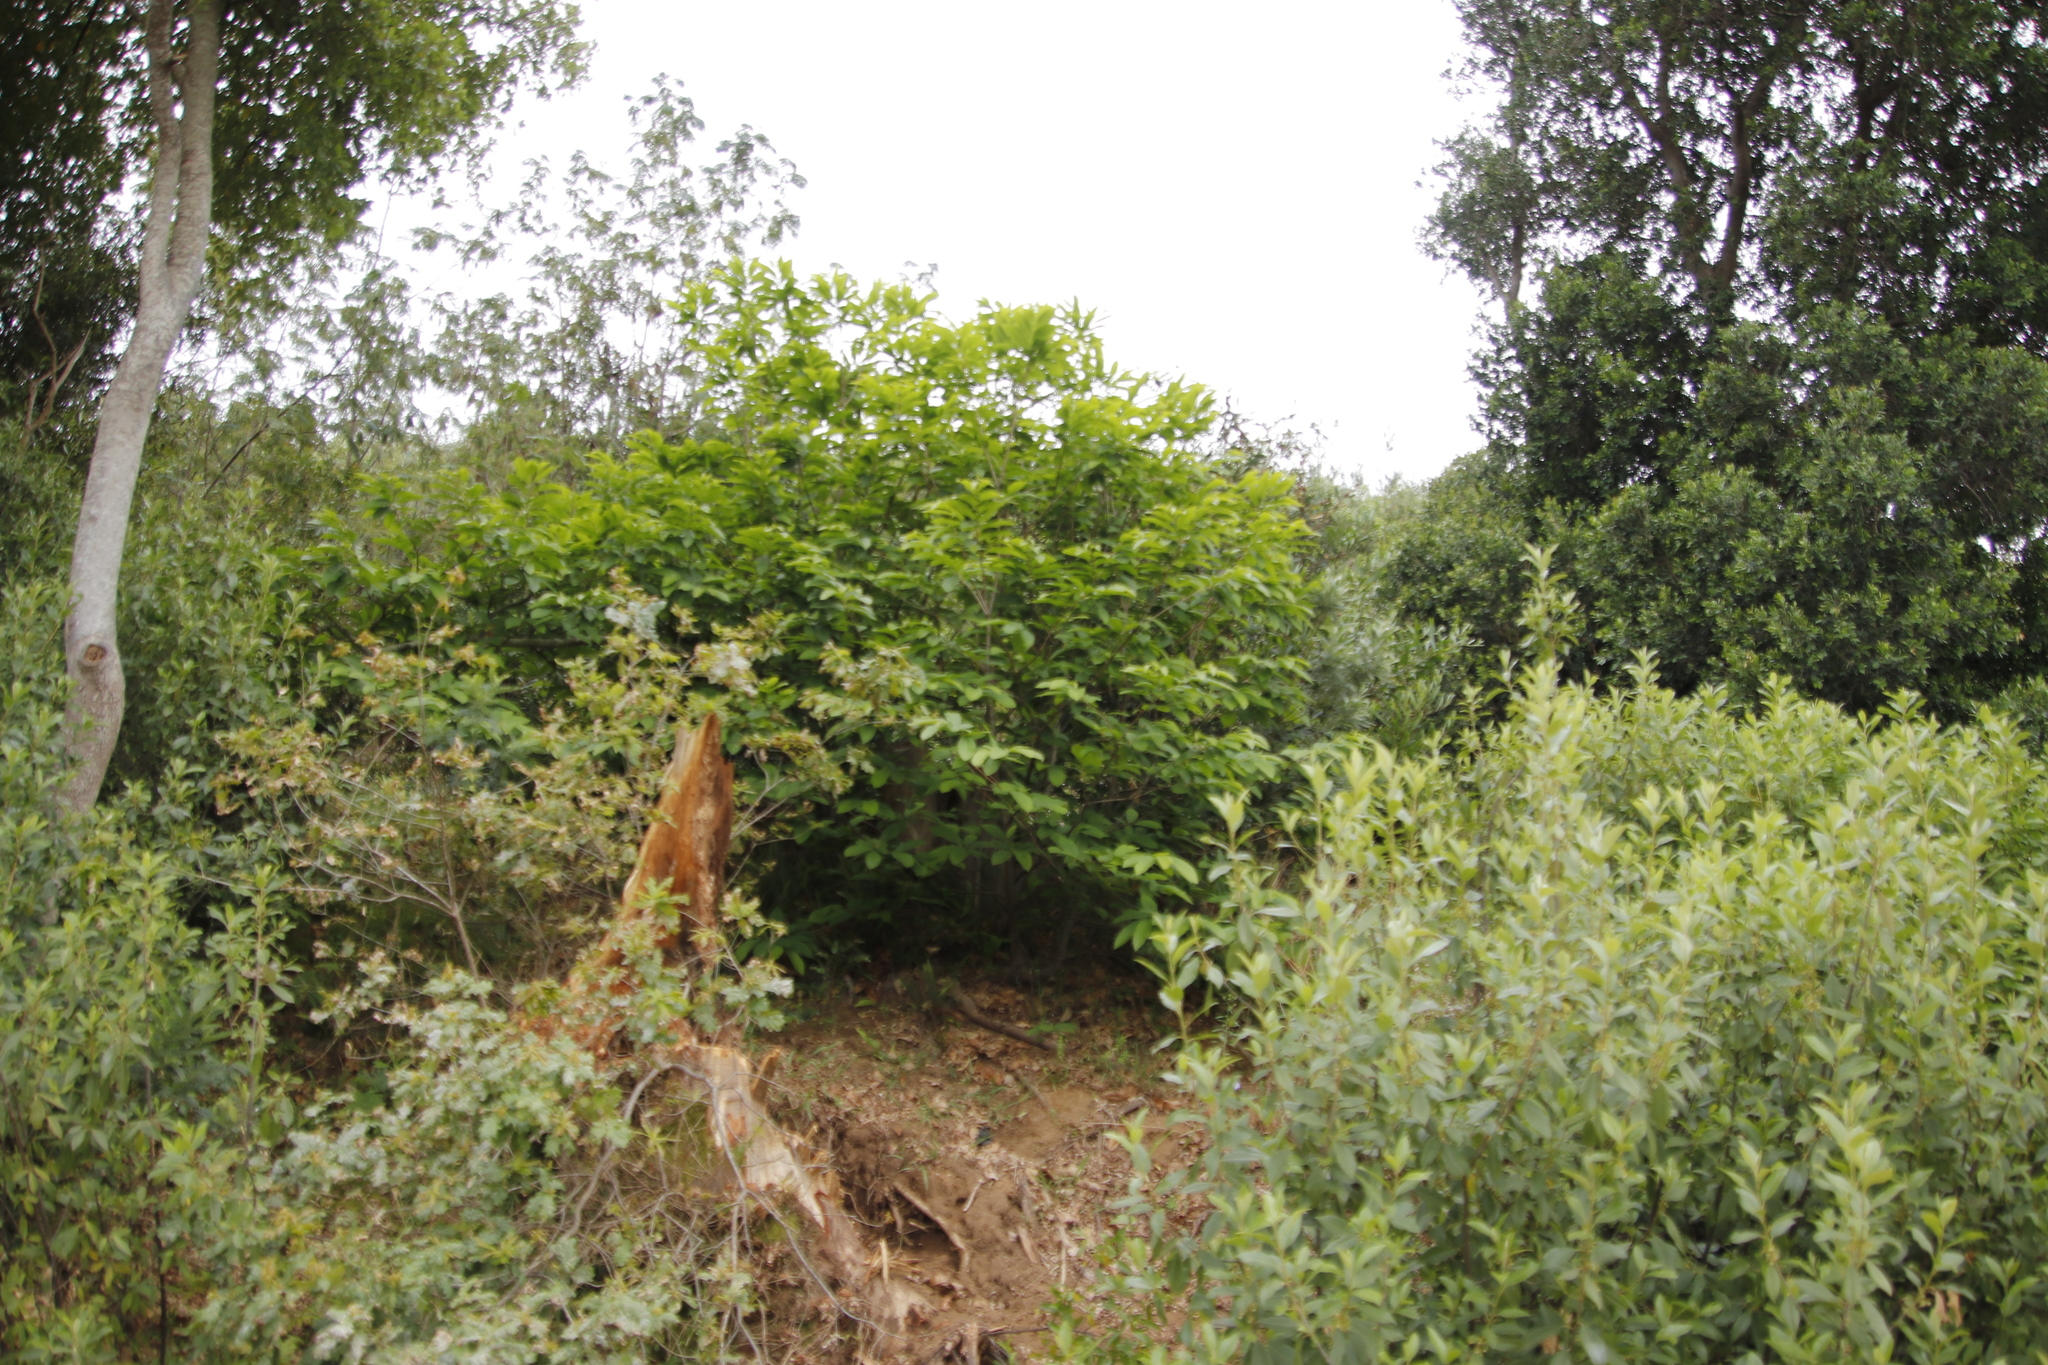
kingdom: Plantae
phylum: Tracheophyta
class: Magnoliopsida
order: Fagales
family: Fagaceae
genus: Castanea
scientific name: Castanea sativa
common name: Sweet chestnut
